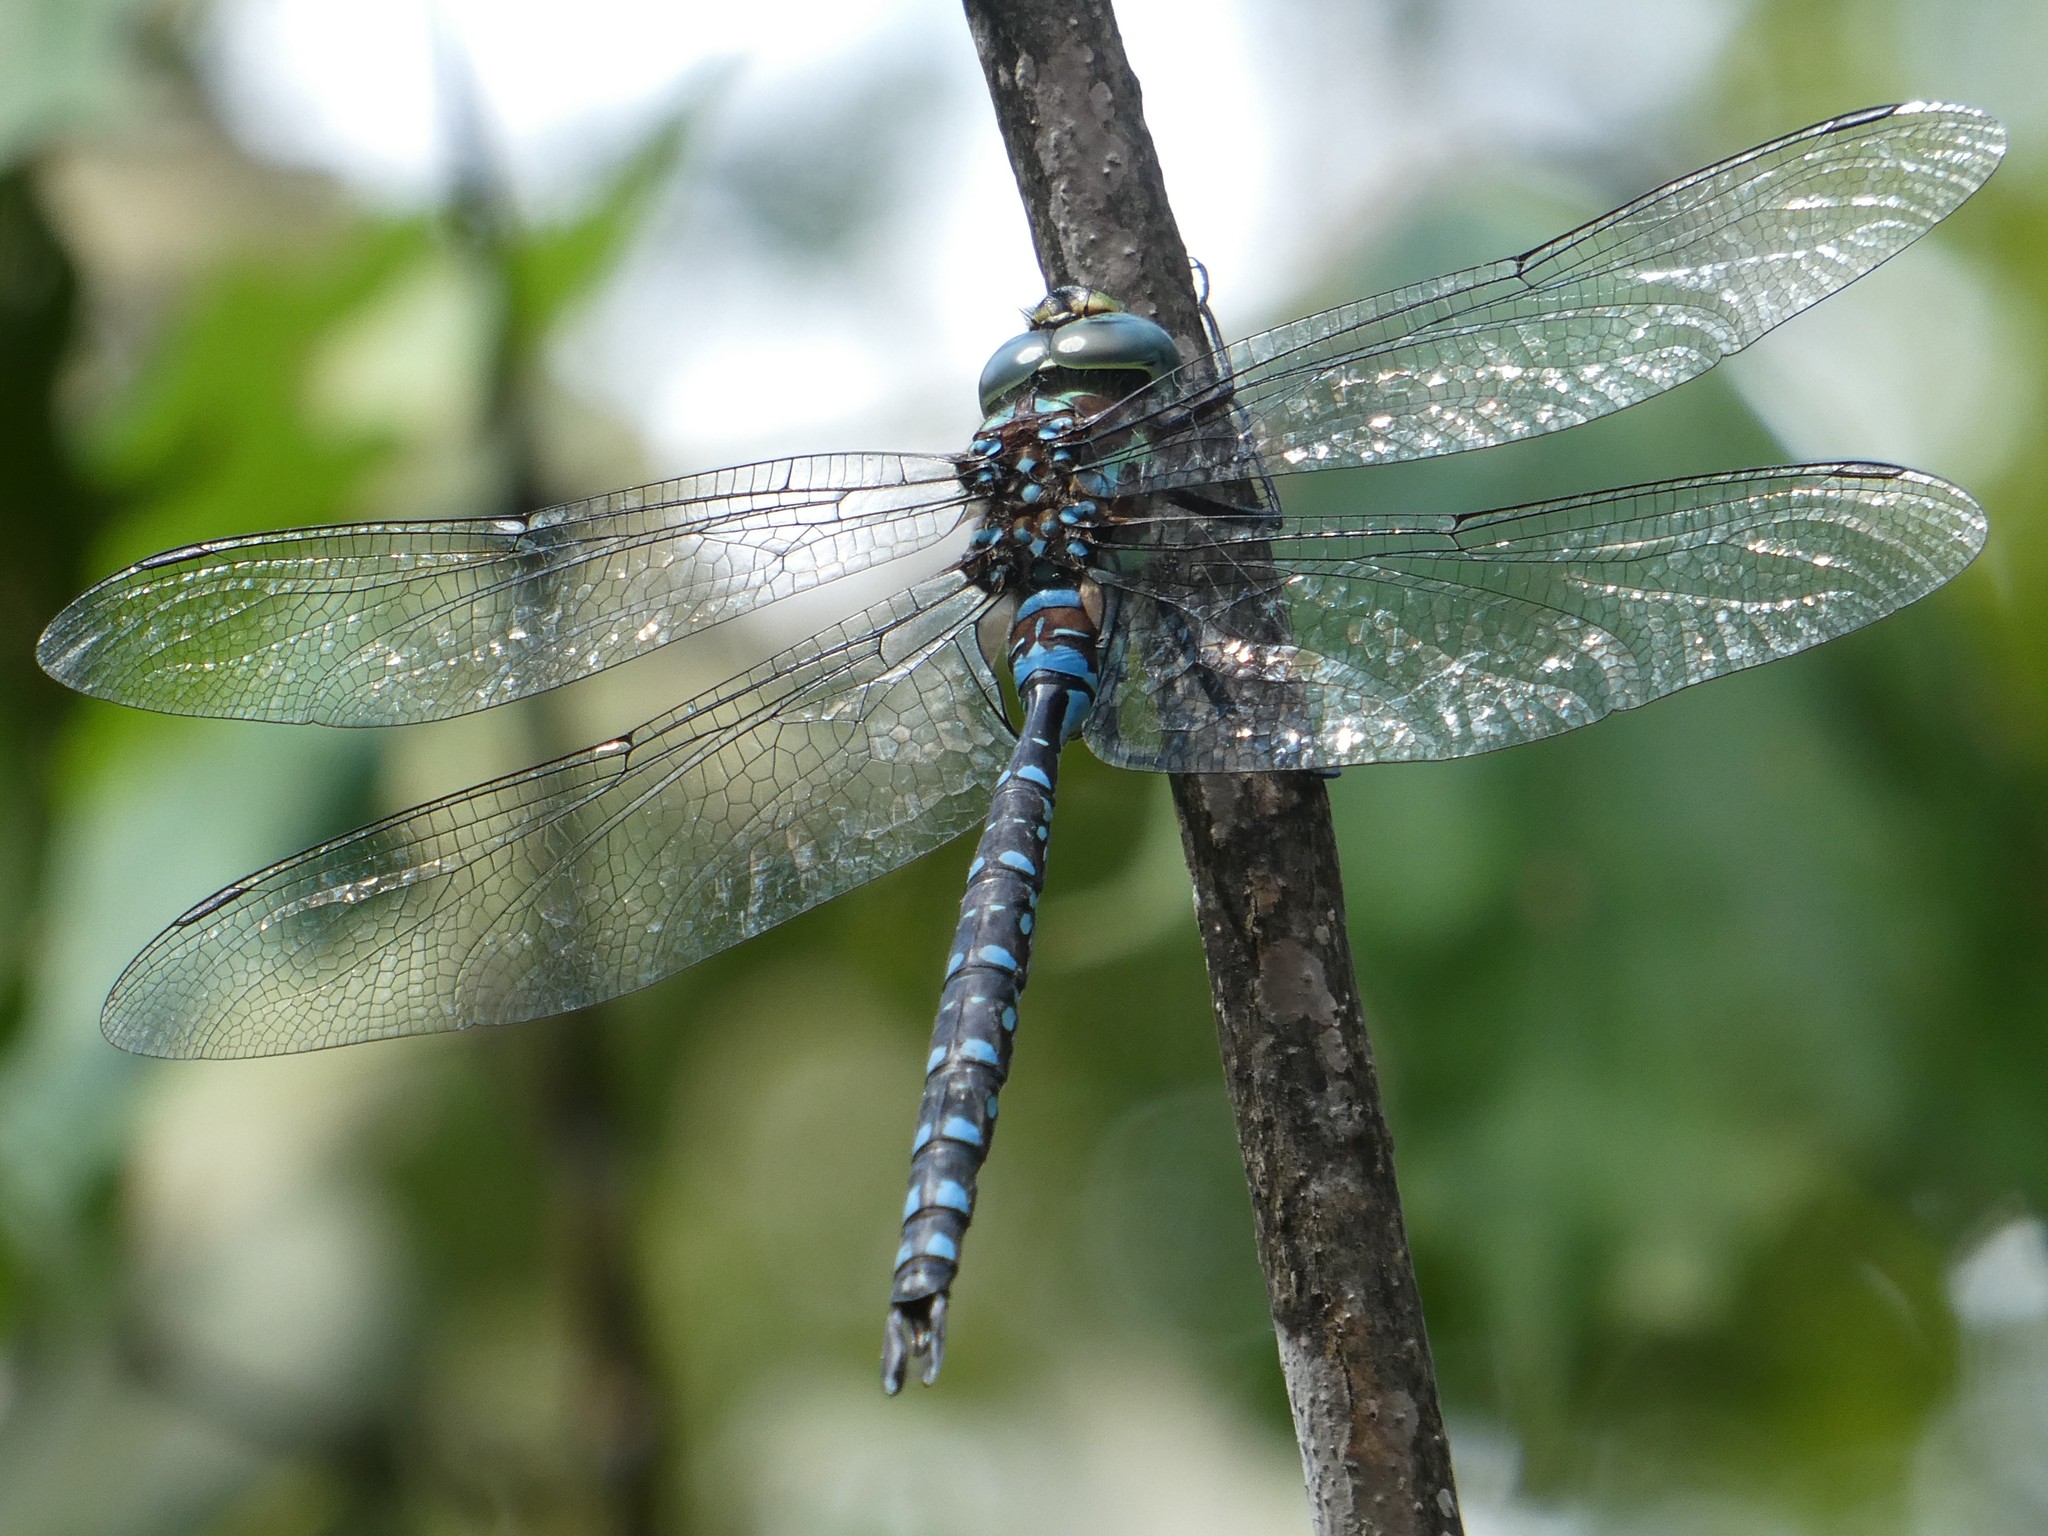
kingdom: Animalia
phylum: Arthropoda
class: Insecta
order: Odonata
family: Aeshnidae
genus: Aeshna
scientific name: Aeshna tuberculifera
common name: Aeschne à tubercules
